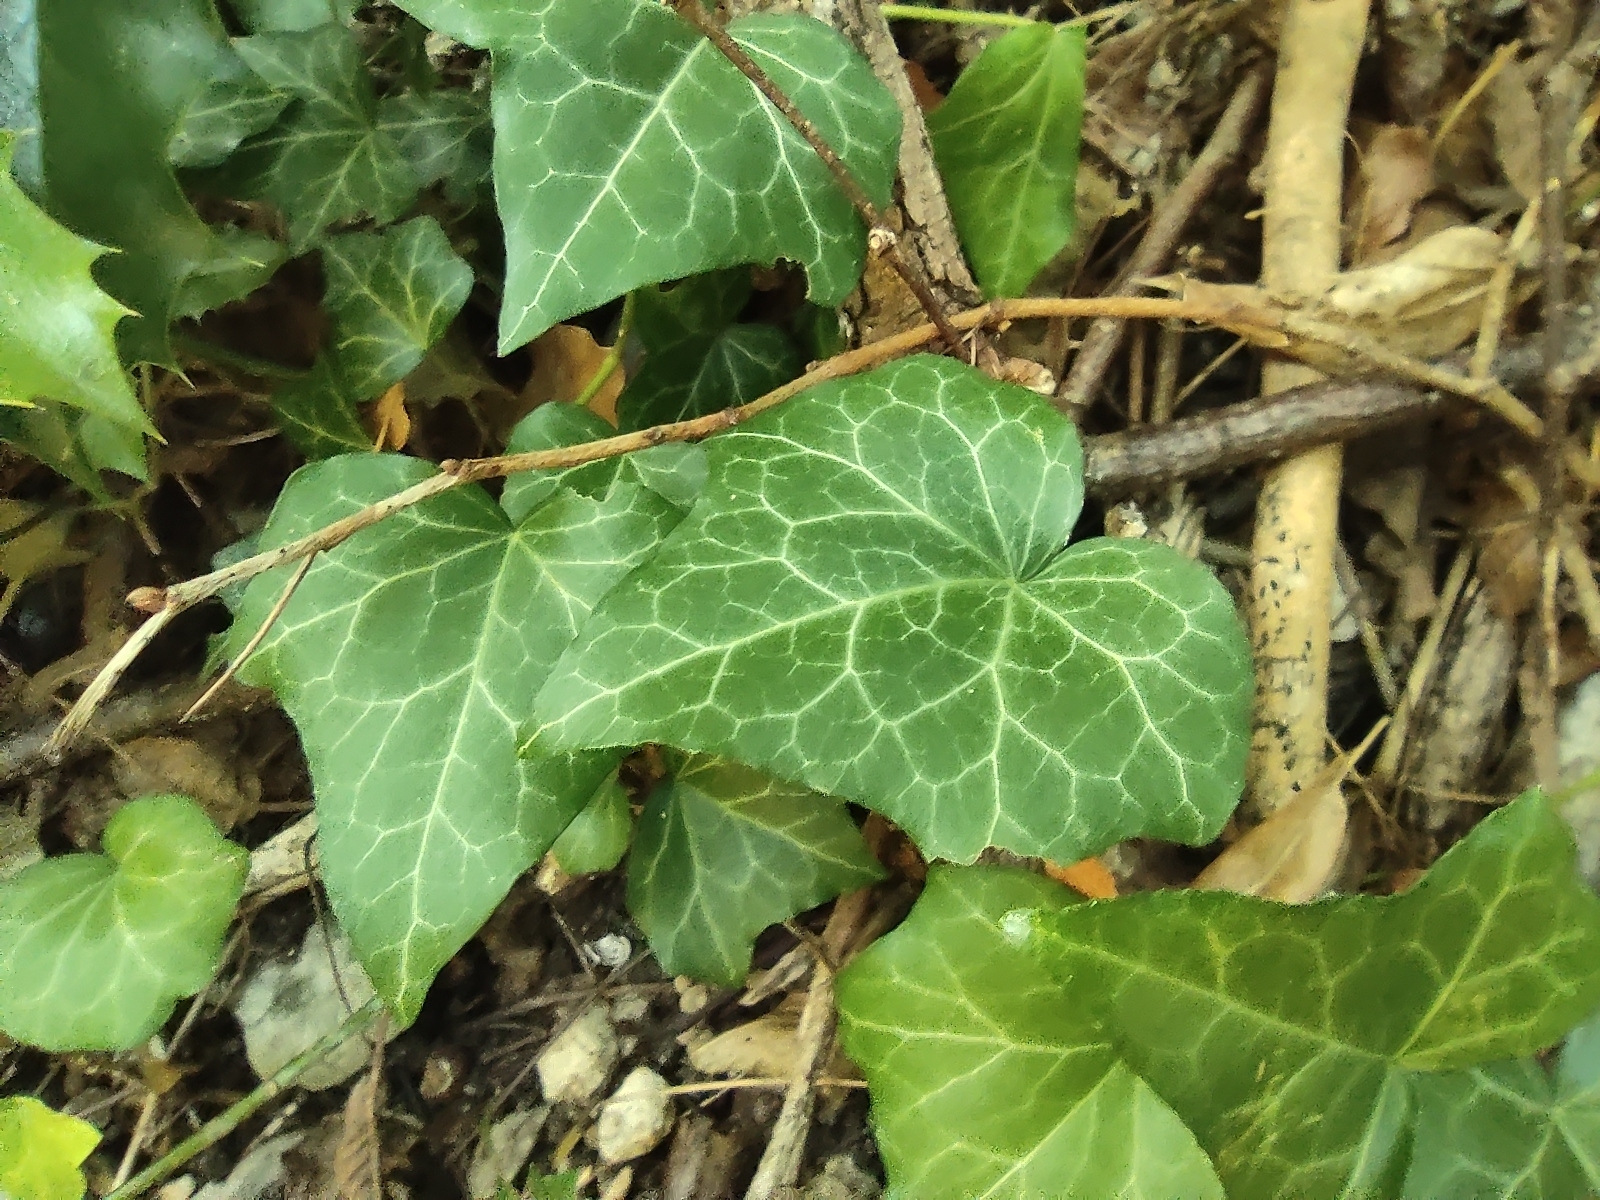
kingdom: Plantae
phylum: Tracheophyta
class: Magnoliopsida
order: Apiales
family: Araliaceae
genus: Hedera
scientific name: Hedera helix
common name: Ivy
